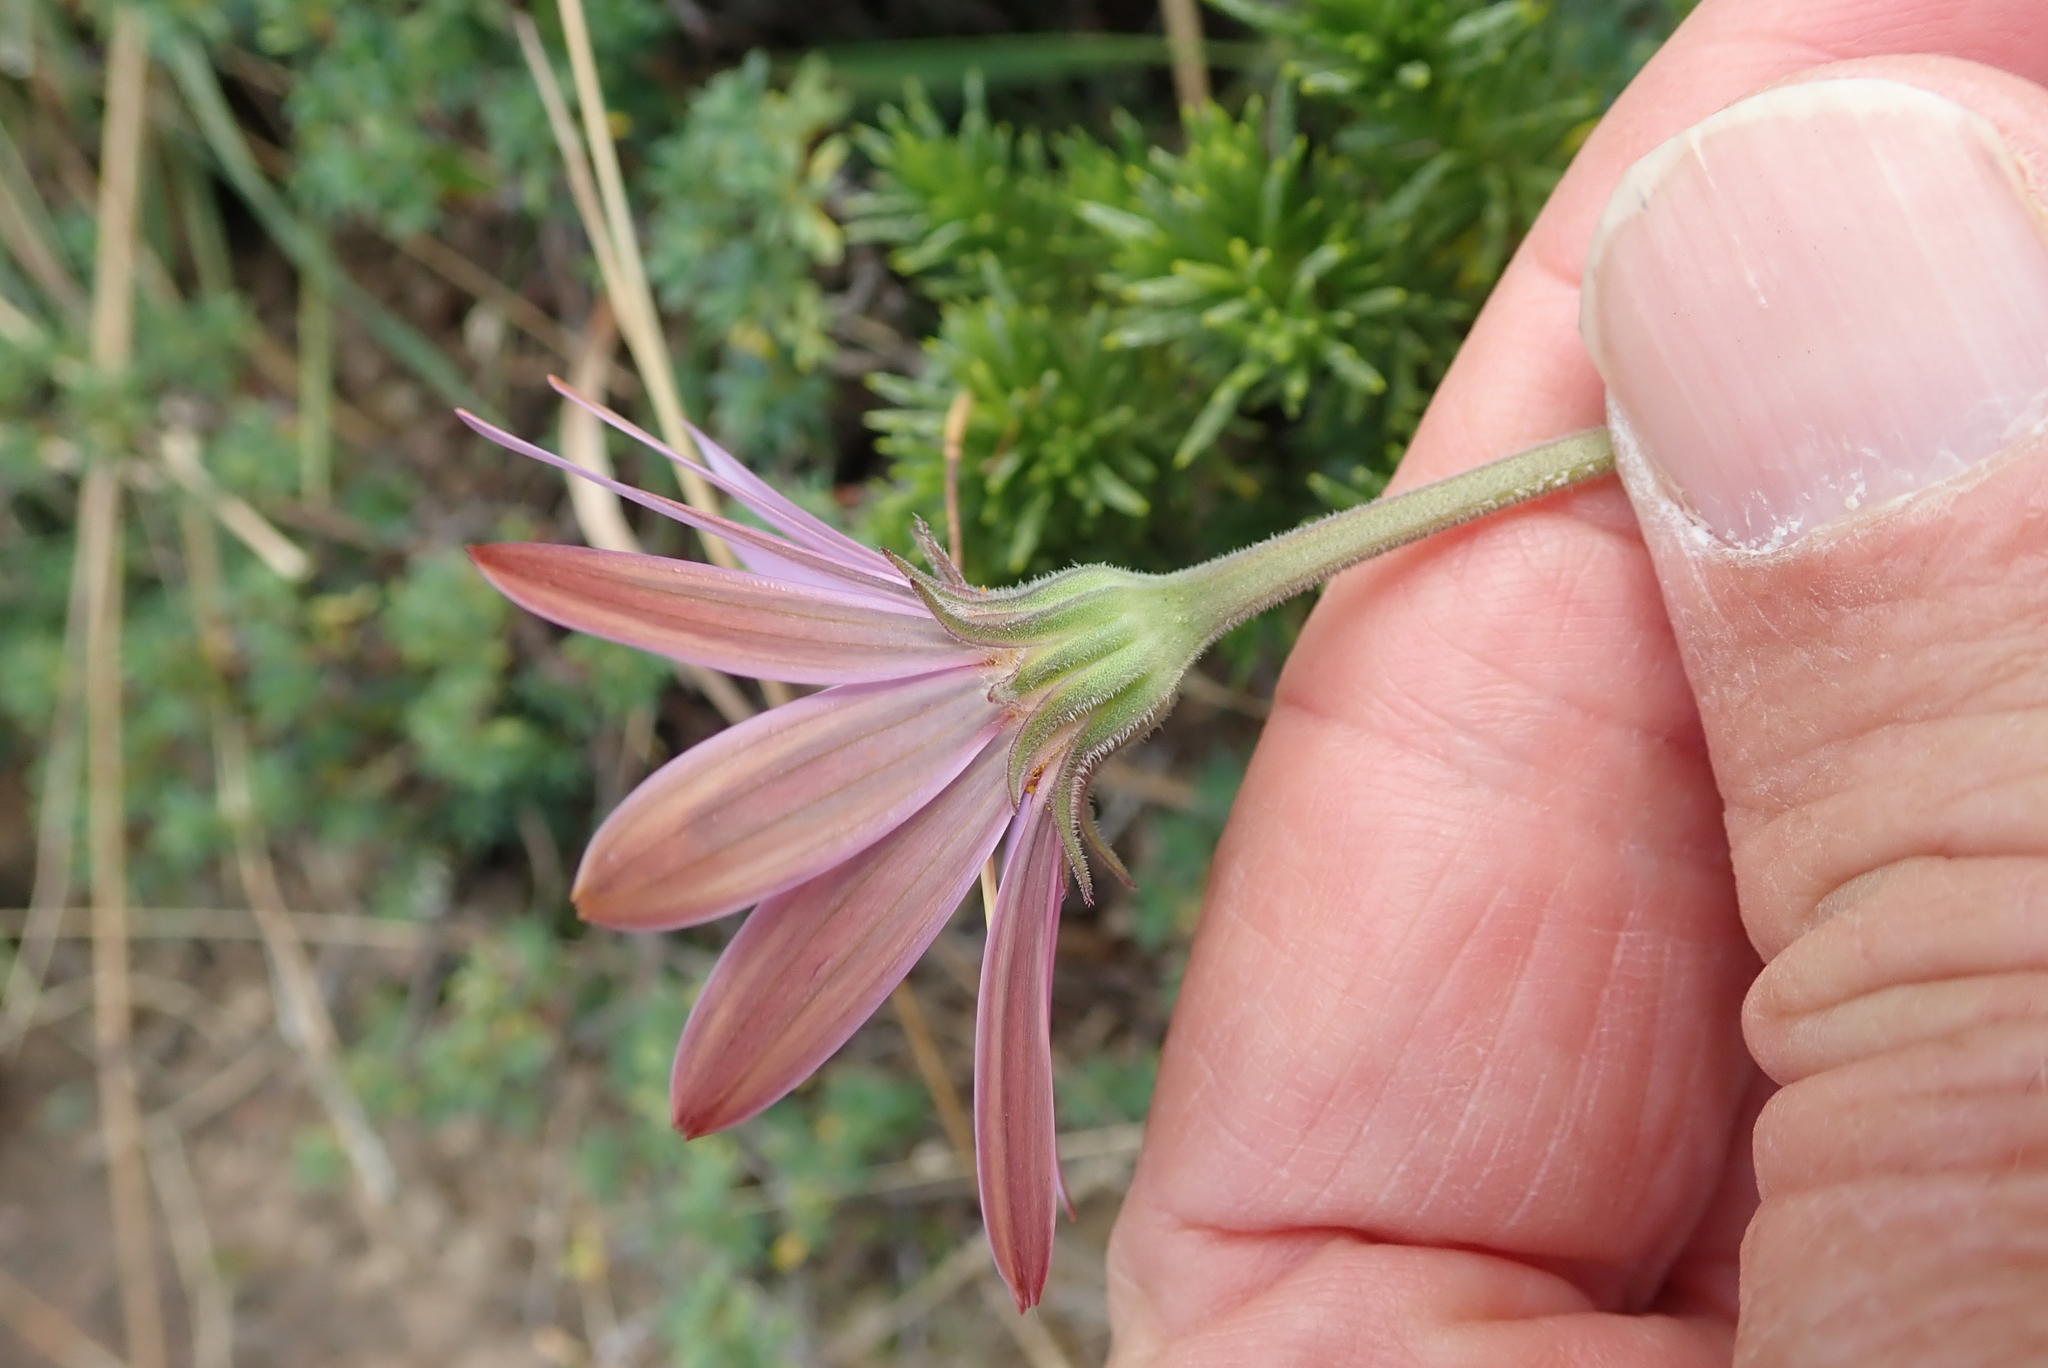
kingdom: Plantae
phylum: Tracheophyta
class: Magnoliopsida
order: Asterales
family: Asteraceae
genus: Dimorphotheca
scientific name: Dimorphotheca jucunda
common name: Osteospermum
